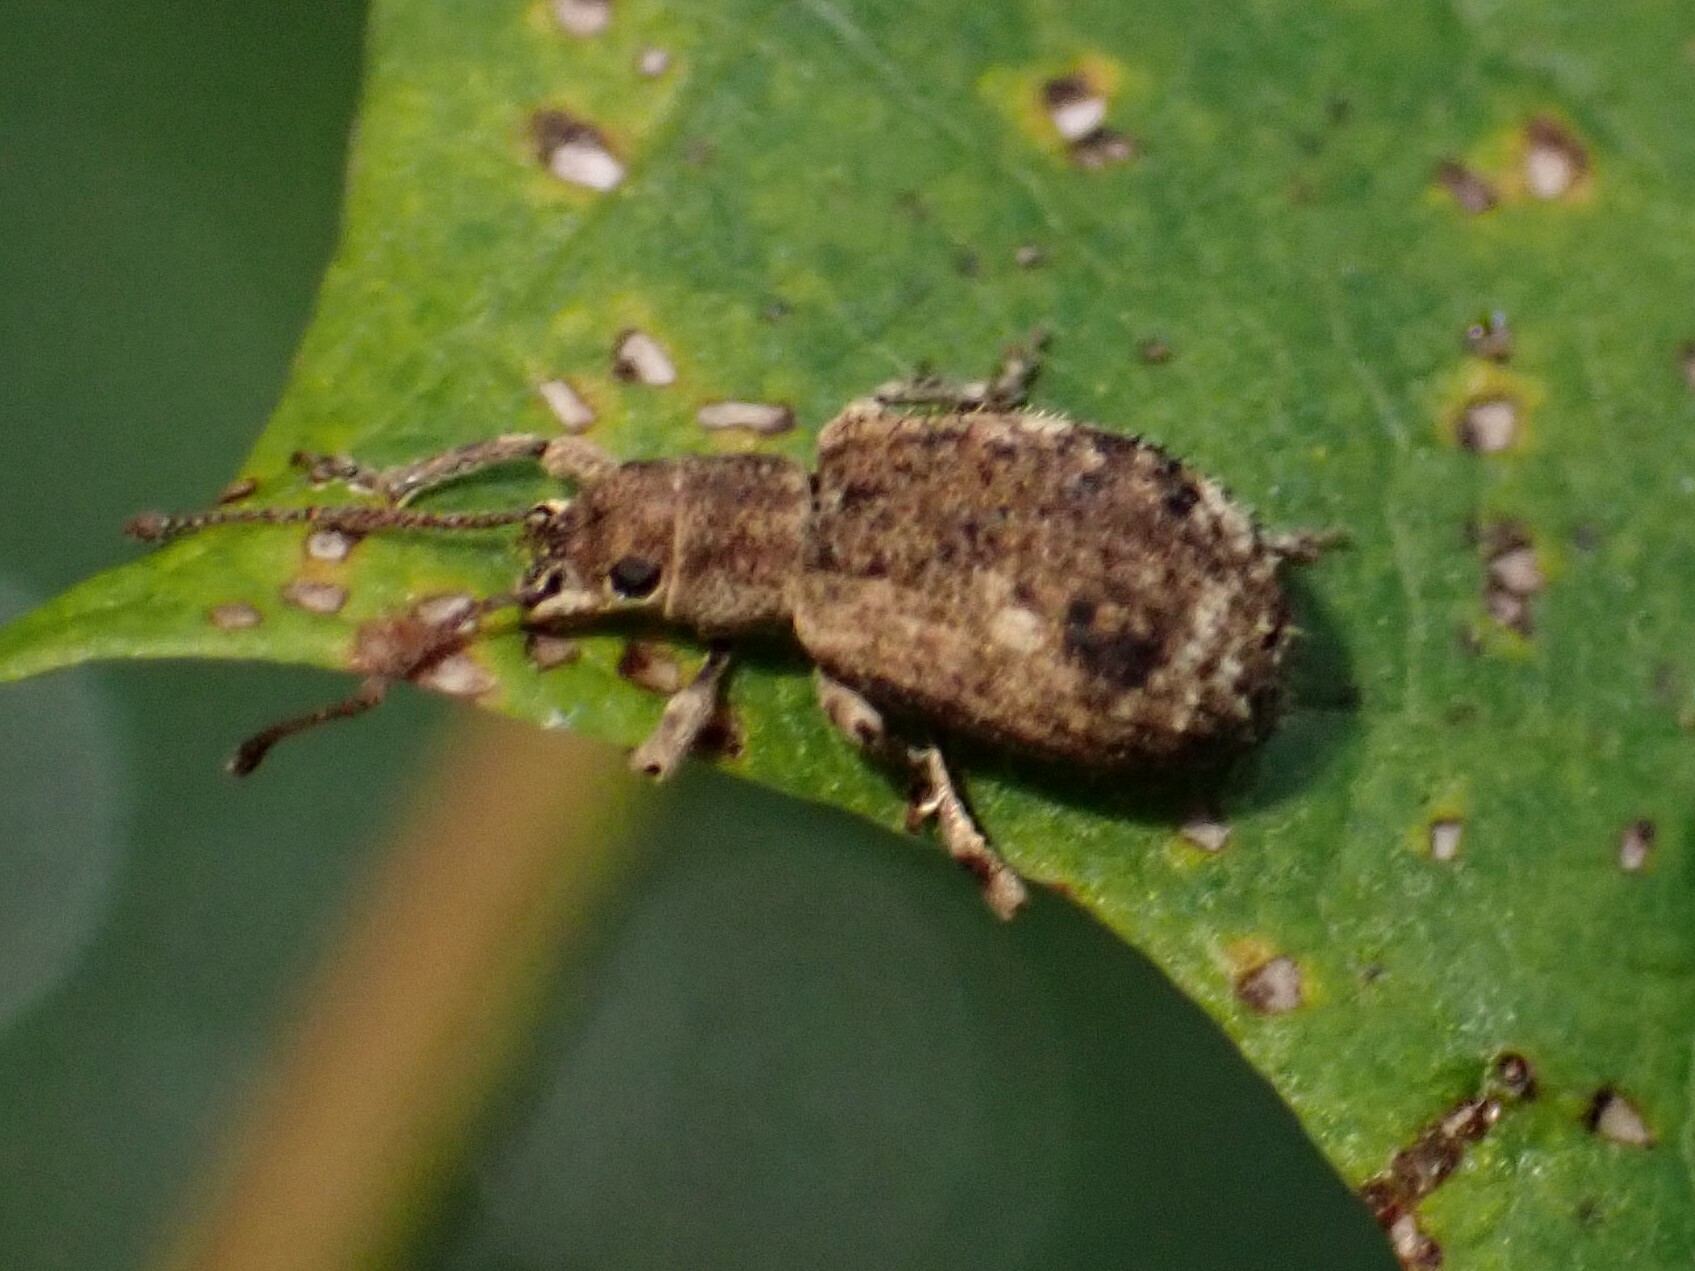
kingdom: Animalia
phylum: Arthropoda
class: Insecta
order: Coleoptera
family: Curculionidae
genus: Pseudoedophrys
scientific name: Pseudoedophrys hilleri
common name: Weevil
